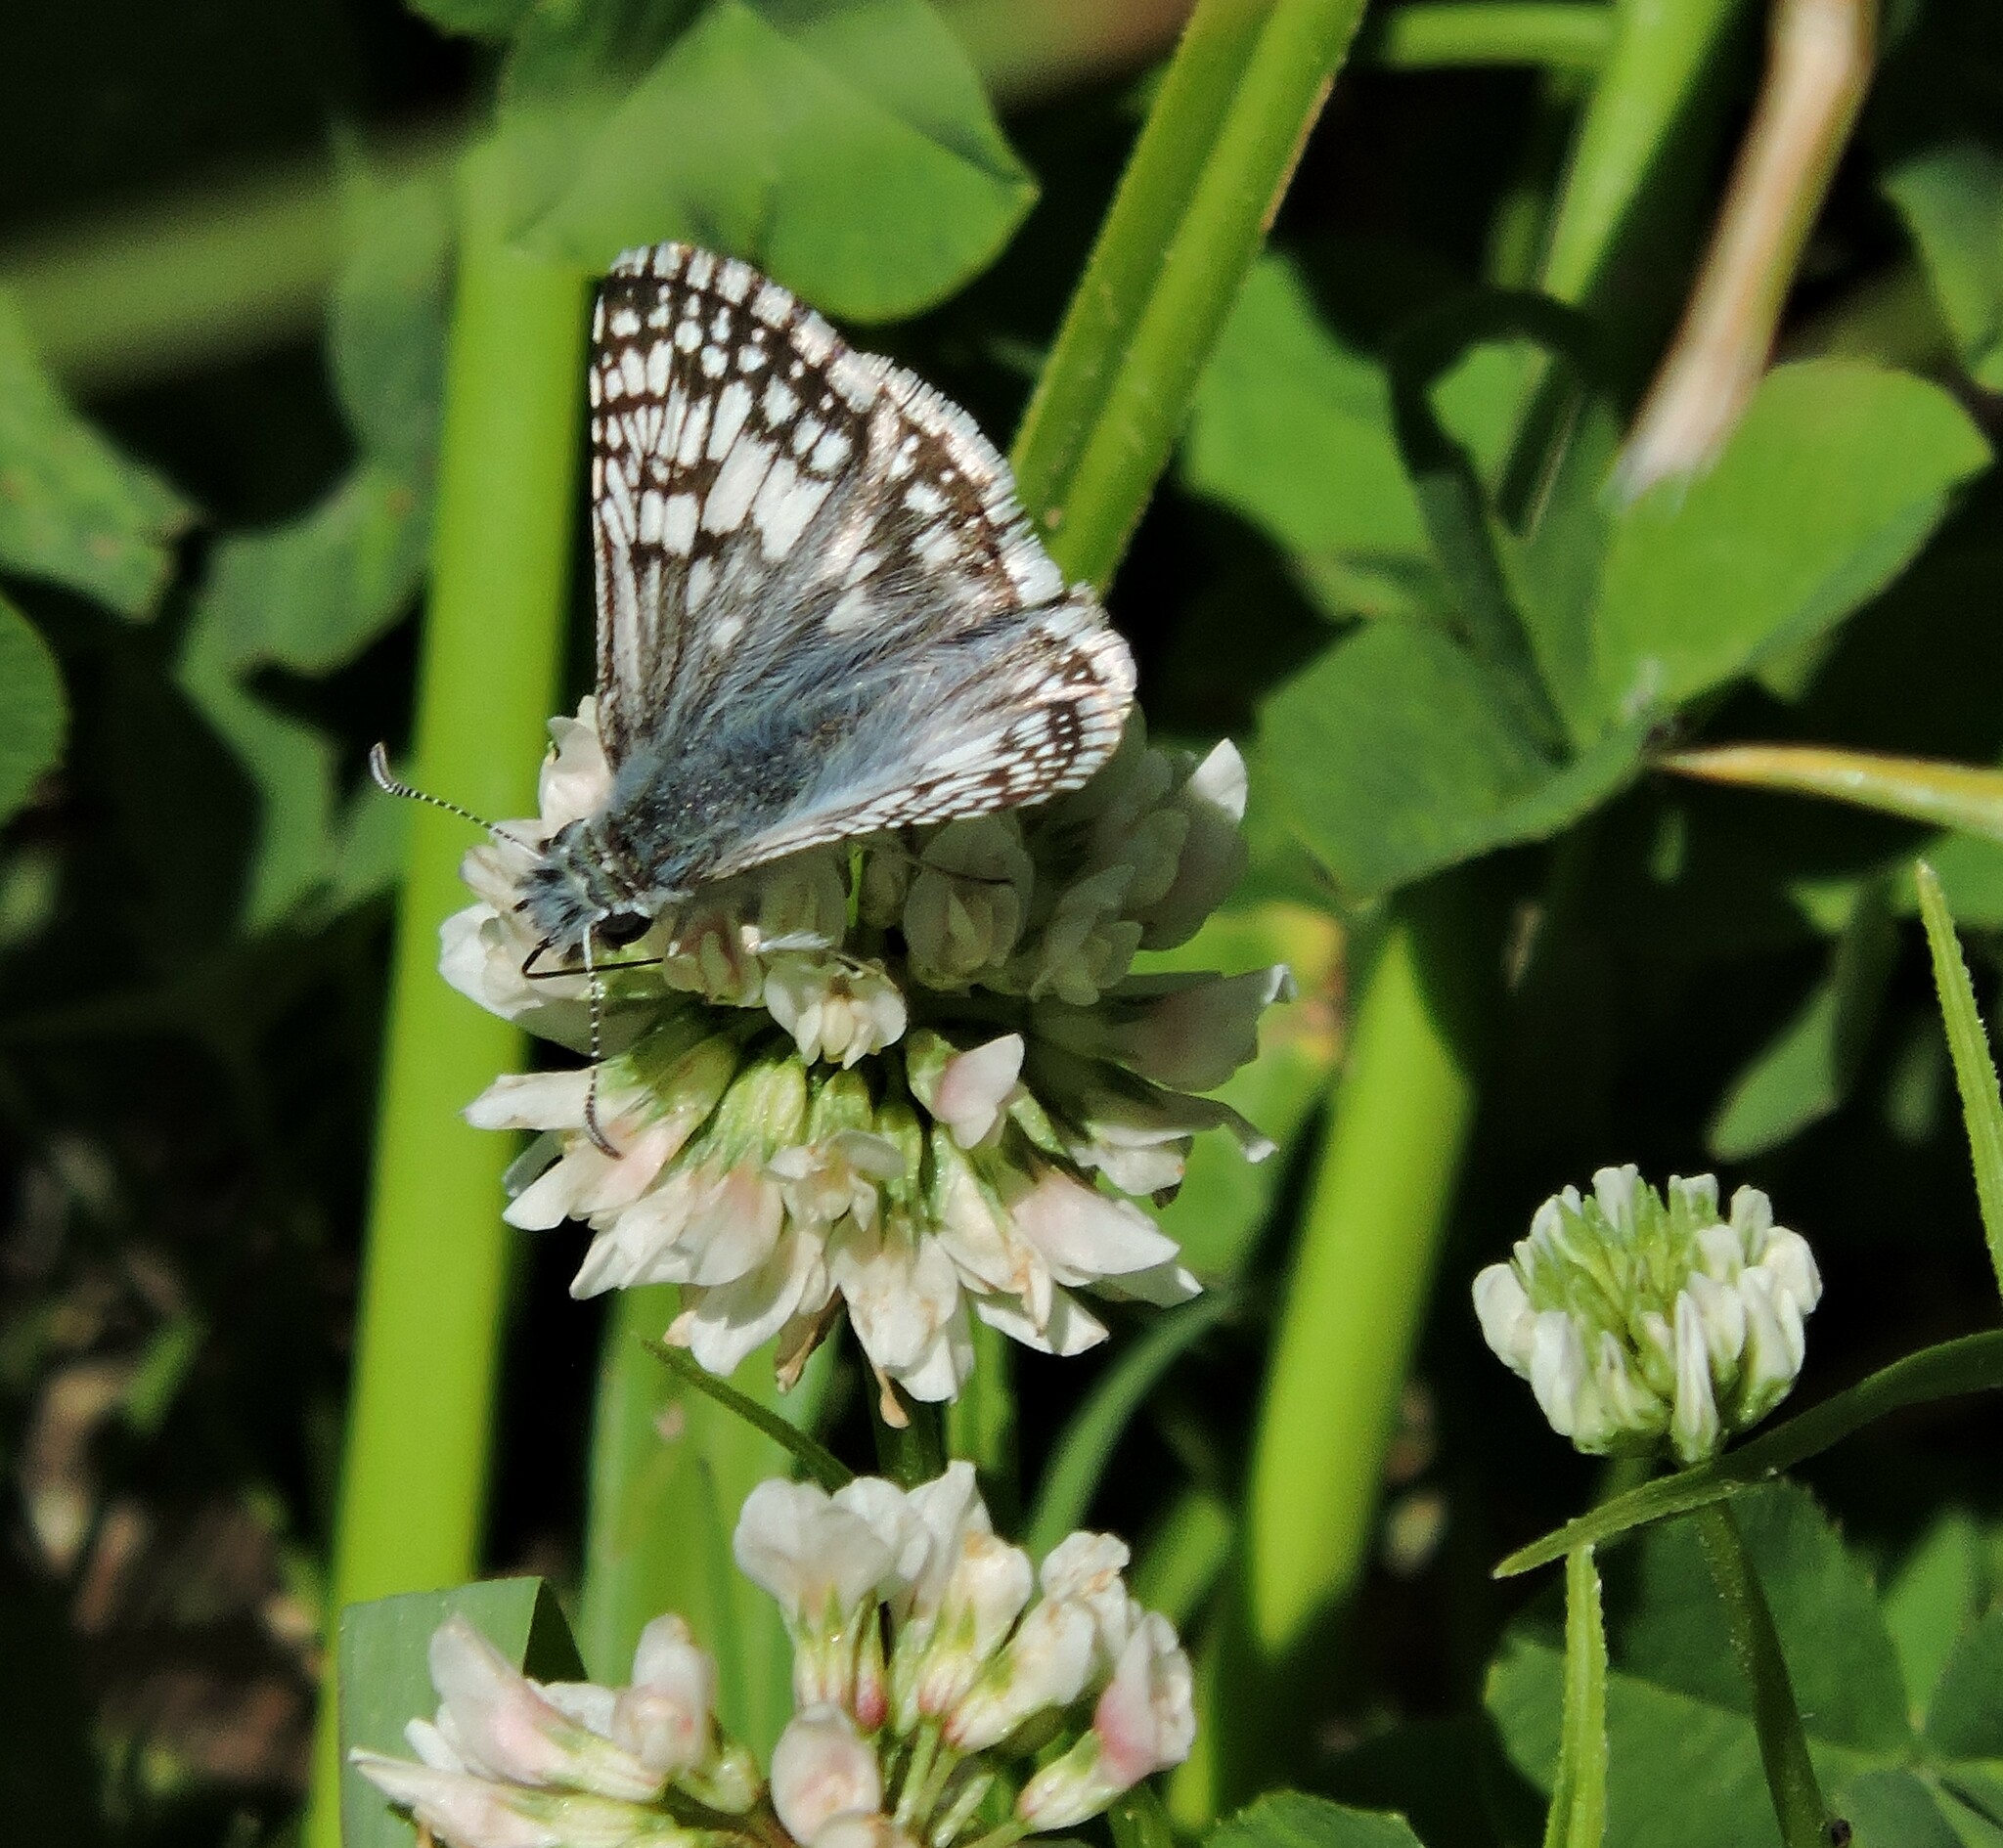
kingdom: Animalia
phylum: Arthropoda
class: Insecta
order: Lepidoptera
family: Hesperiidae
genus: Burnsius
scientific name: Burnsius communis
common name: Common checkered-skipper
